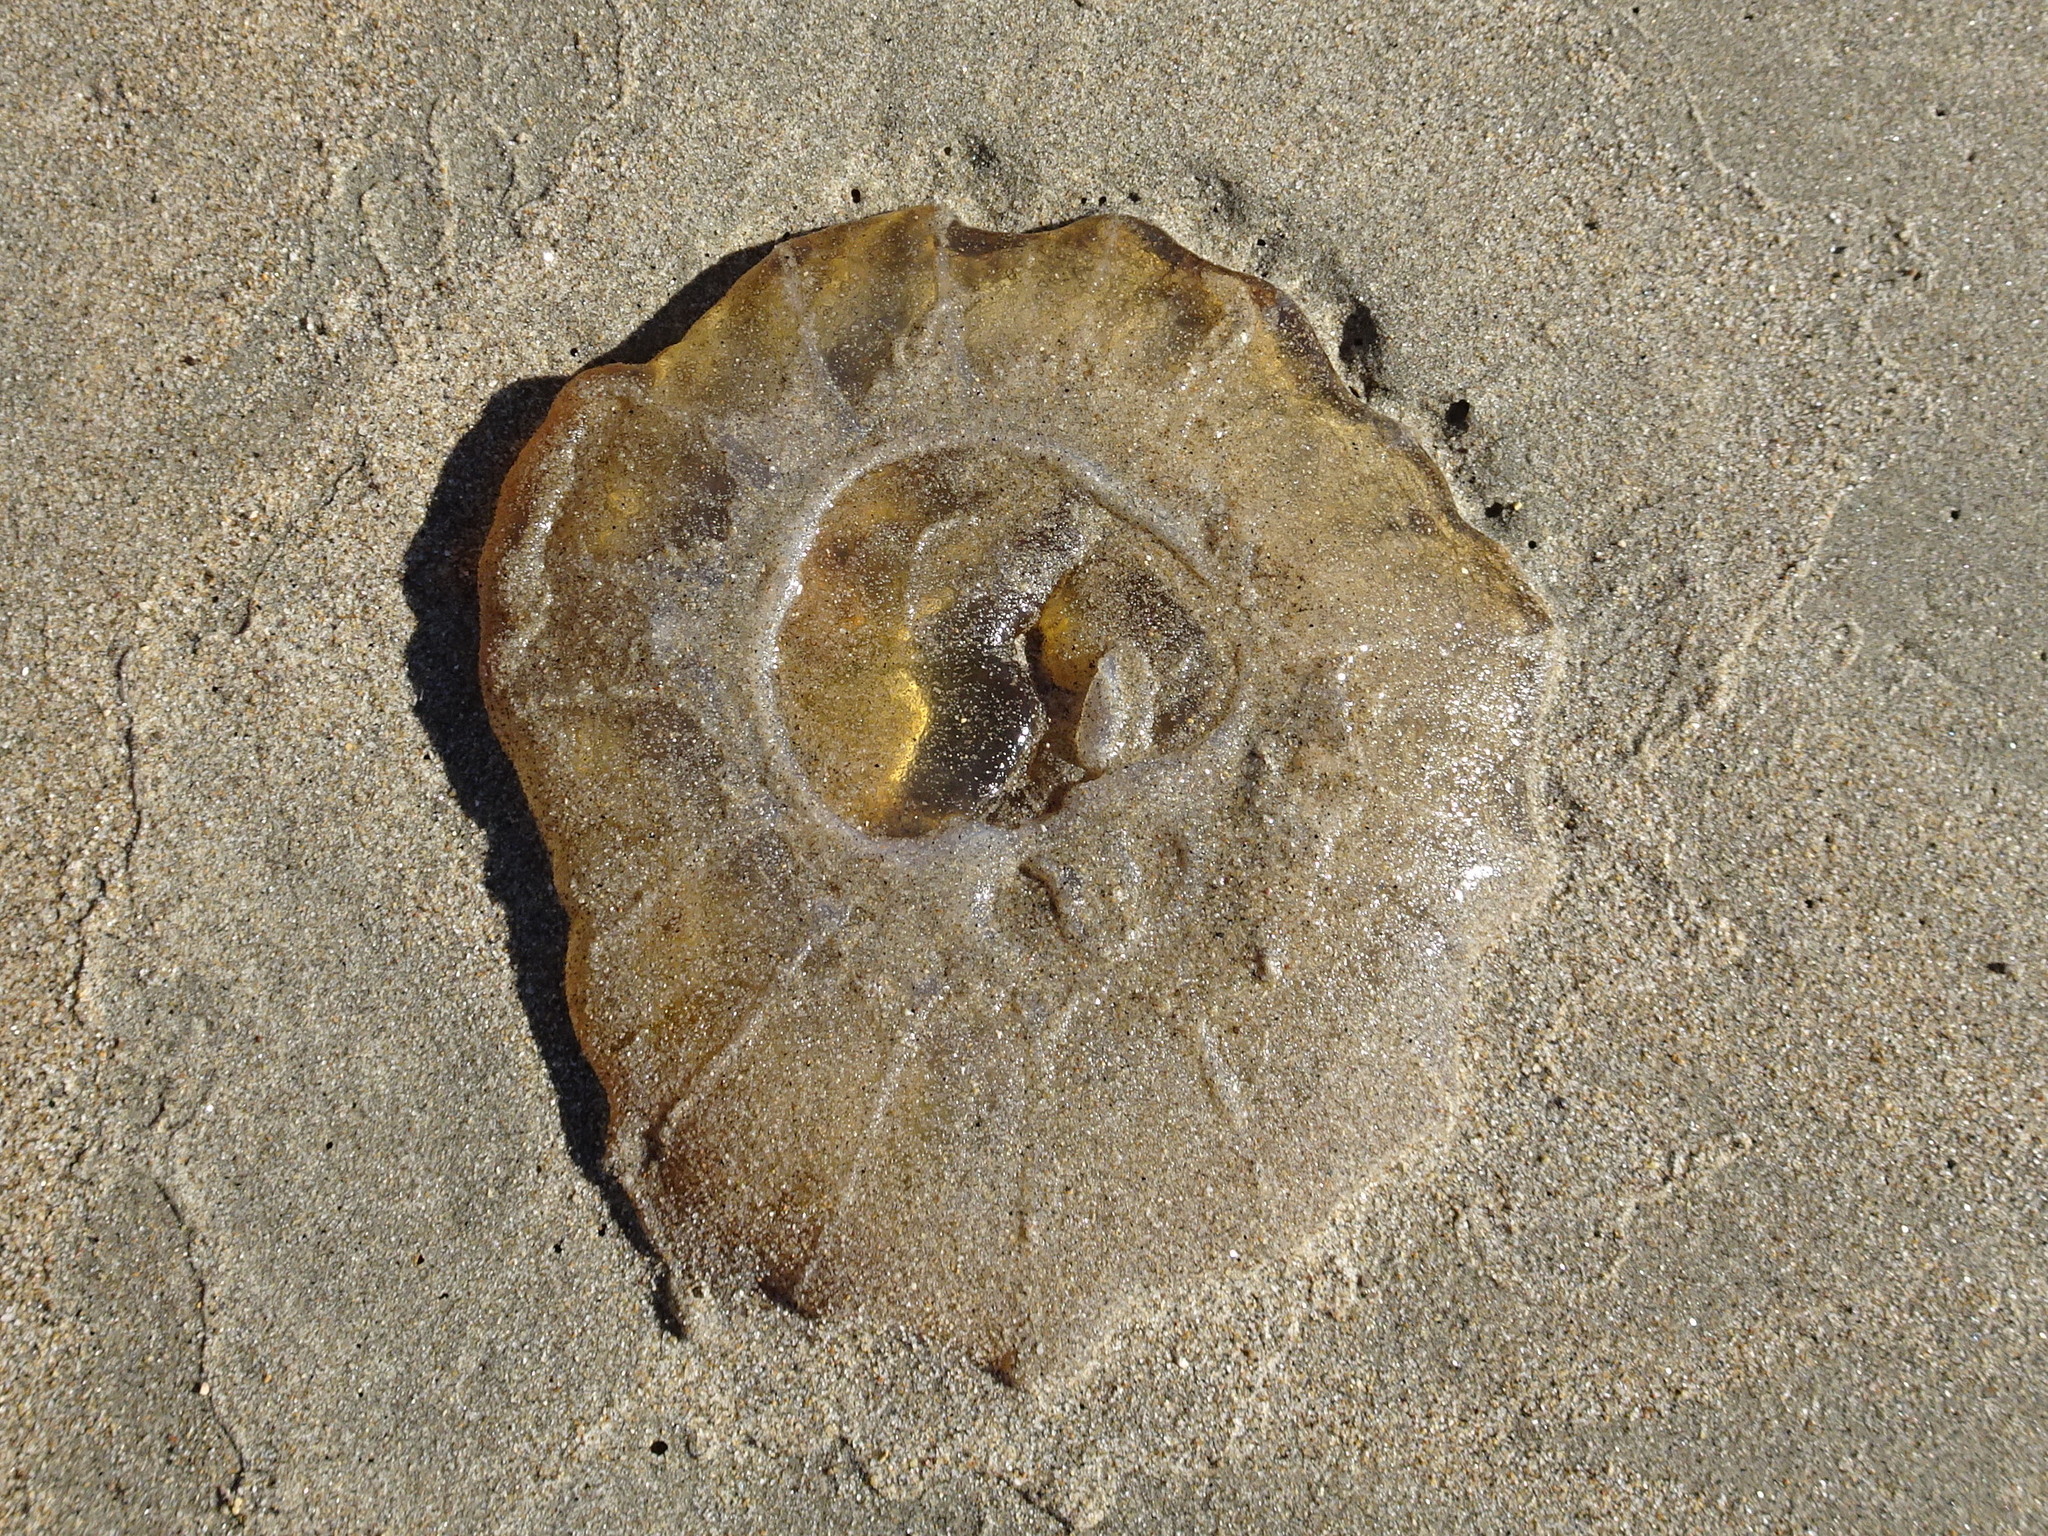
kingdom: Animalia
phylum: Cnidaria
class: Scyphozoa
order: Semaeostomeae
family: Pelagiidae
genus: Chrysaora
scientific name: Chrysaora fuscescens
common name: Sea nettle
